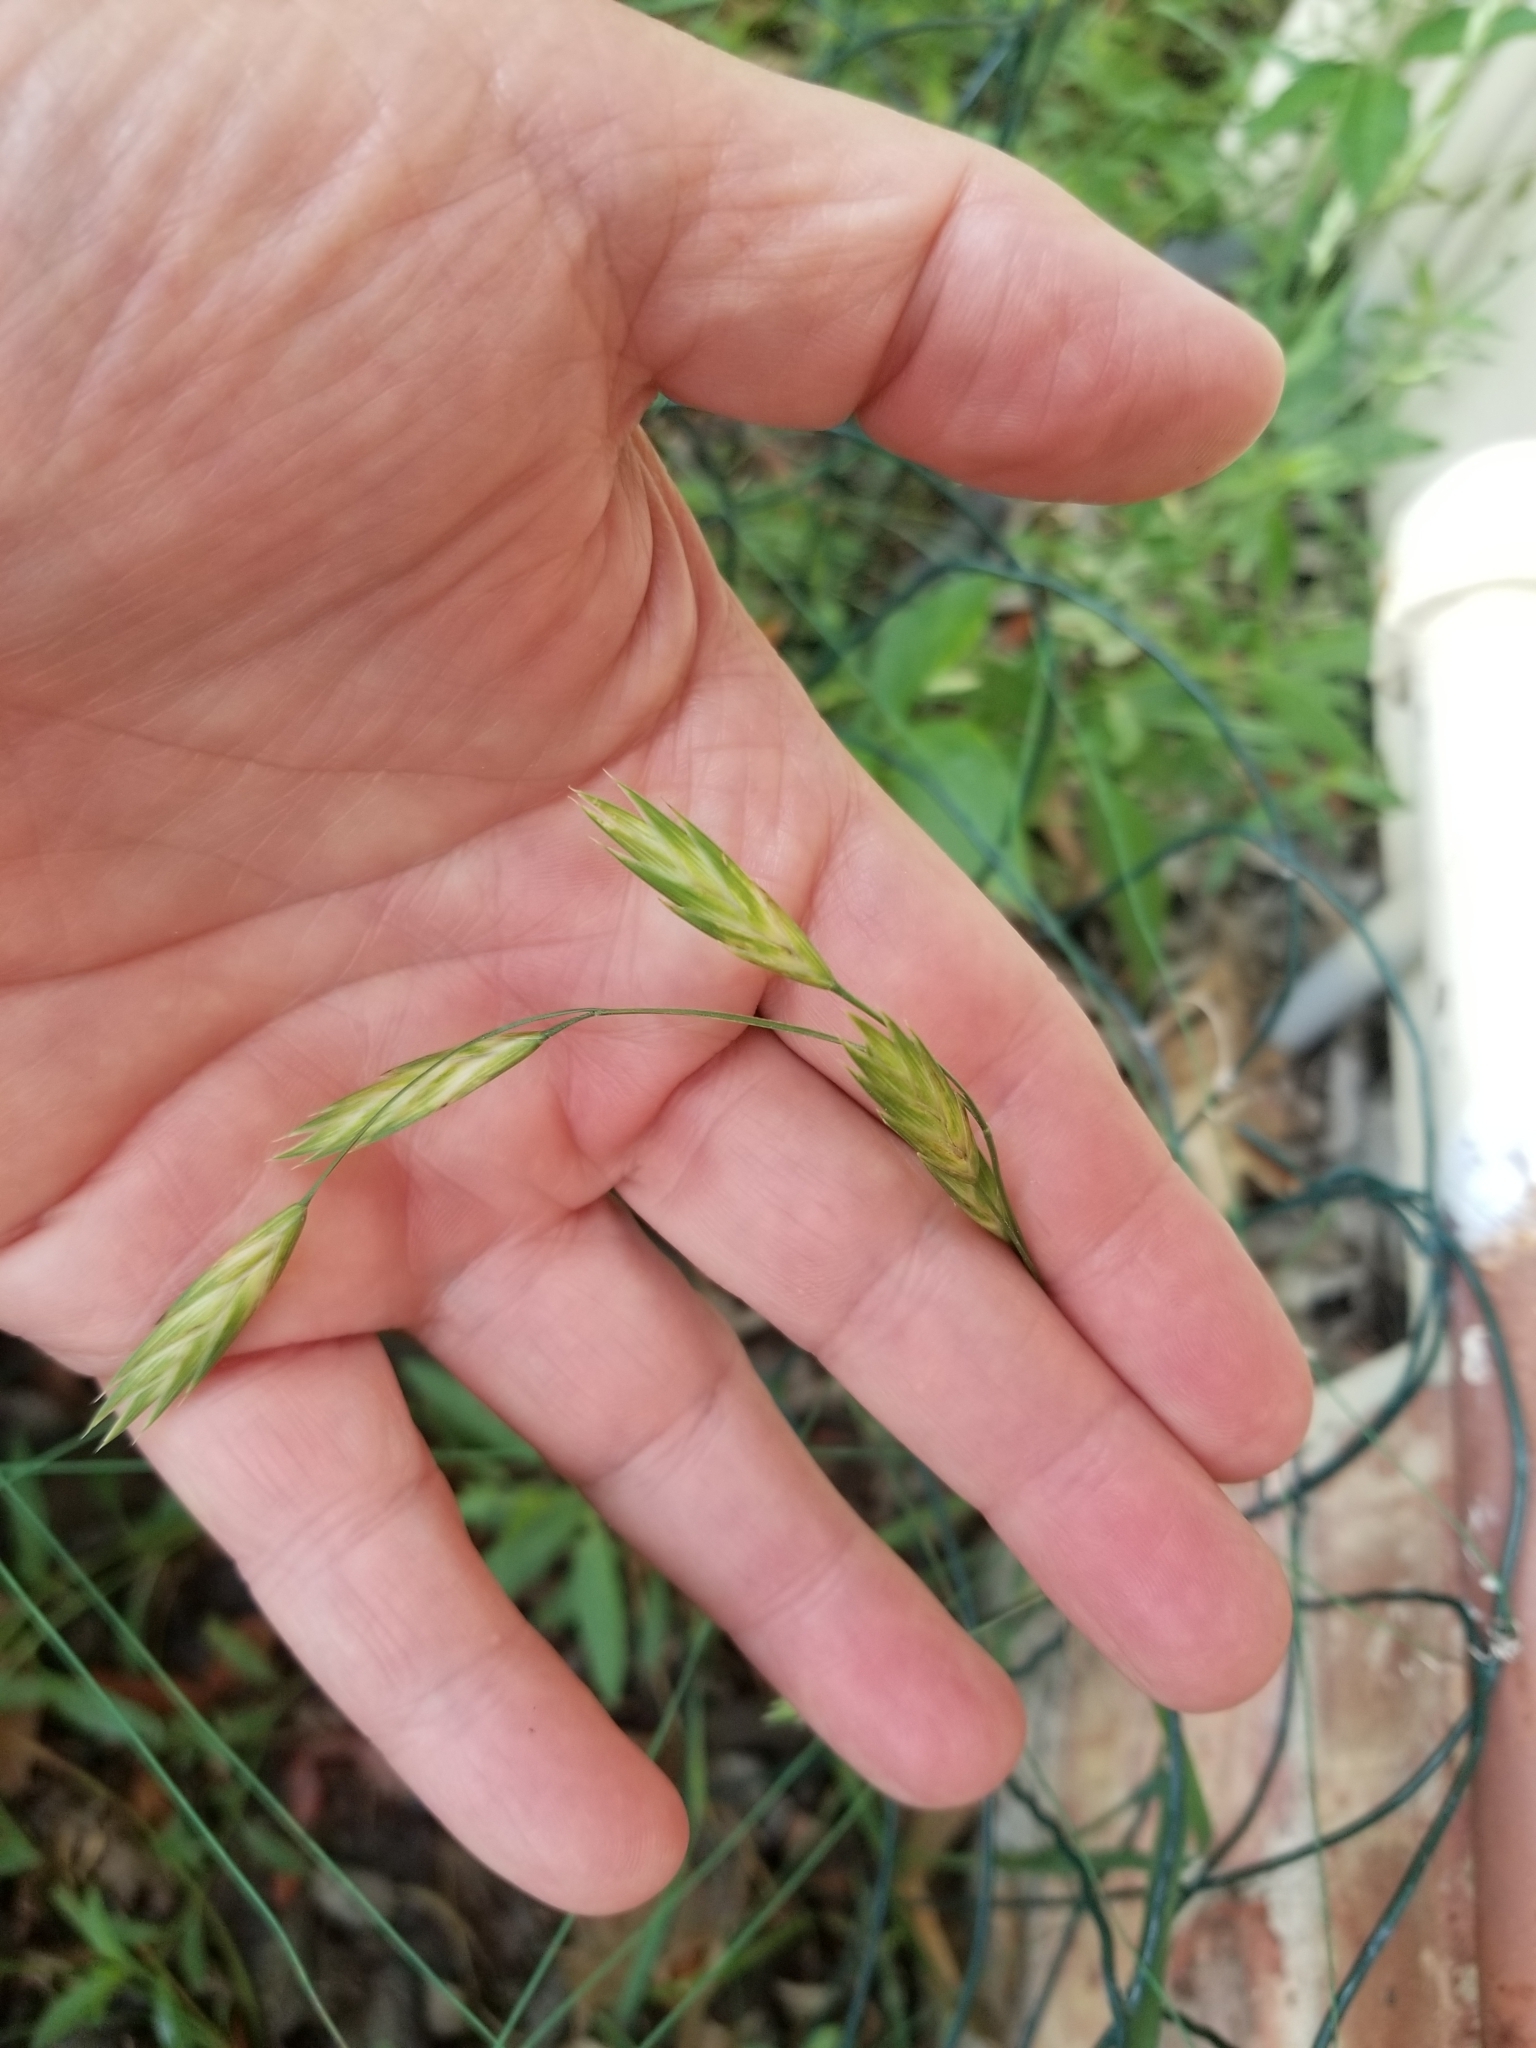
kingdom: Plantae
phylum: Tracheophyta
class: Liliopsida
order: Poales
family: Poaceae
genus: Bromus
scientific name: Bromus catharticus
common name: Rescuegrass
